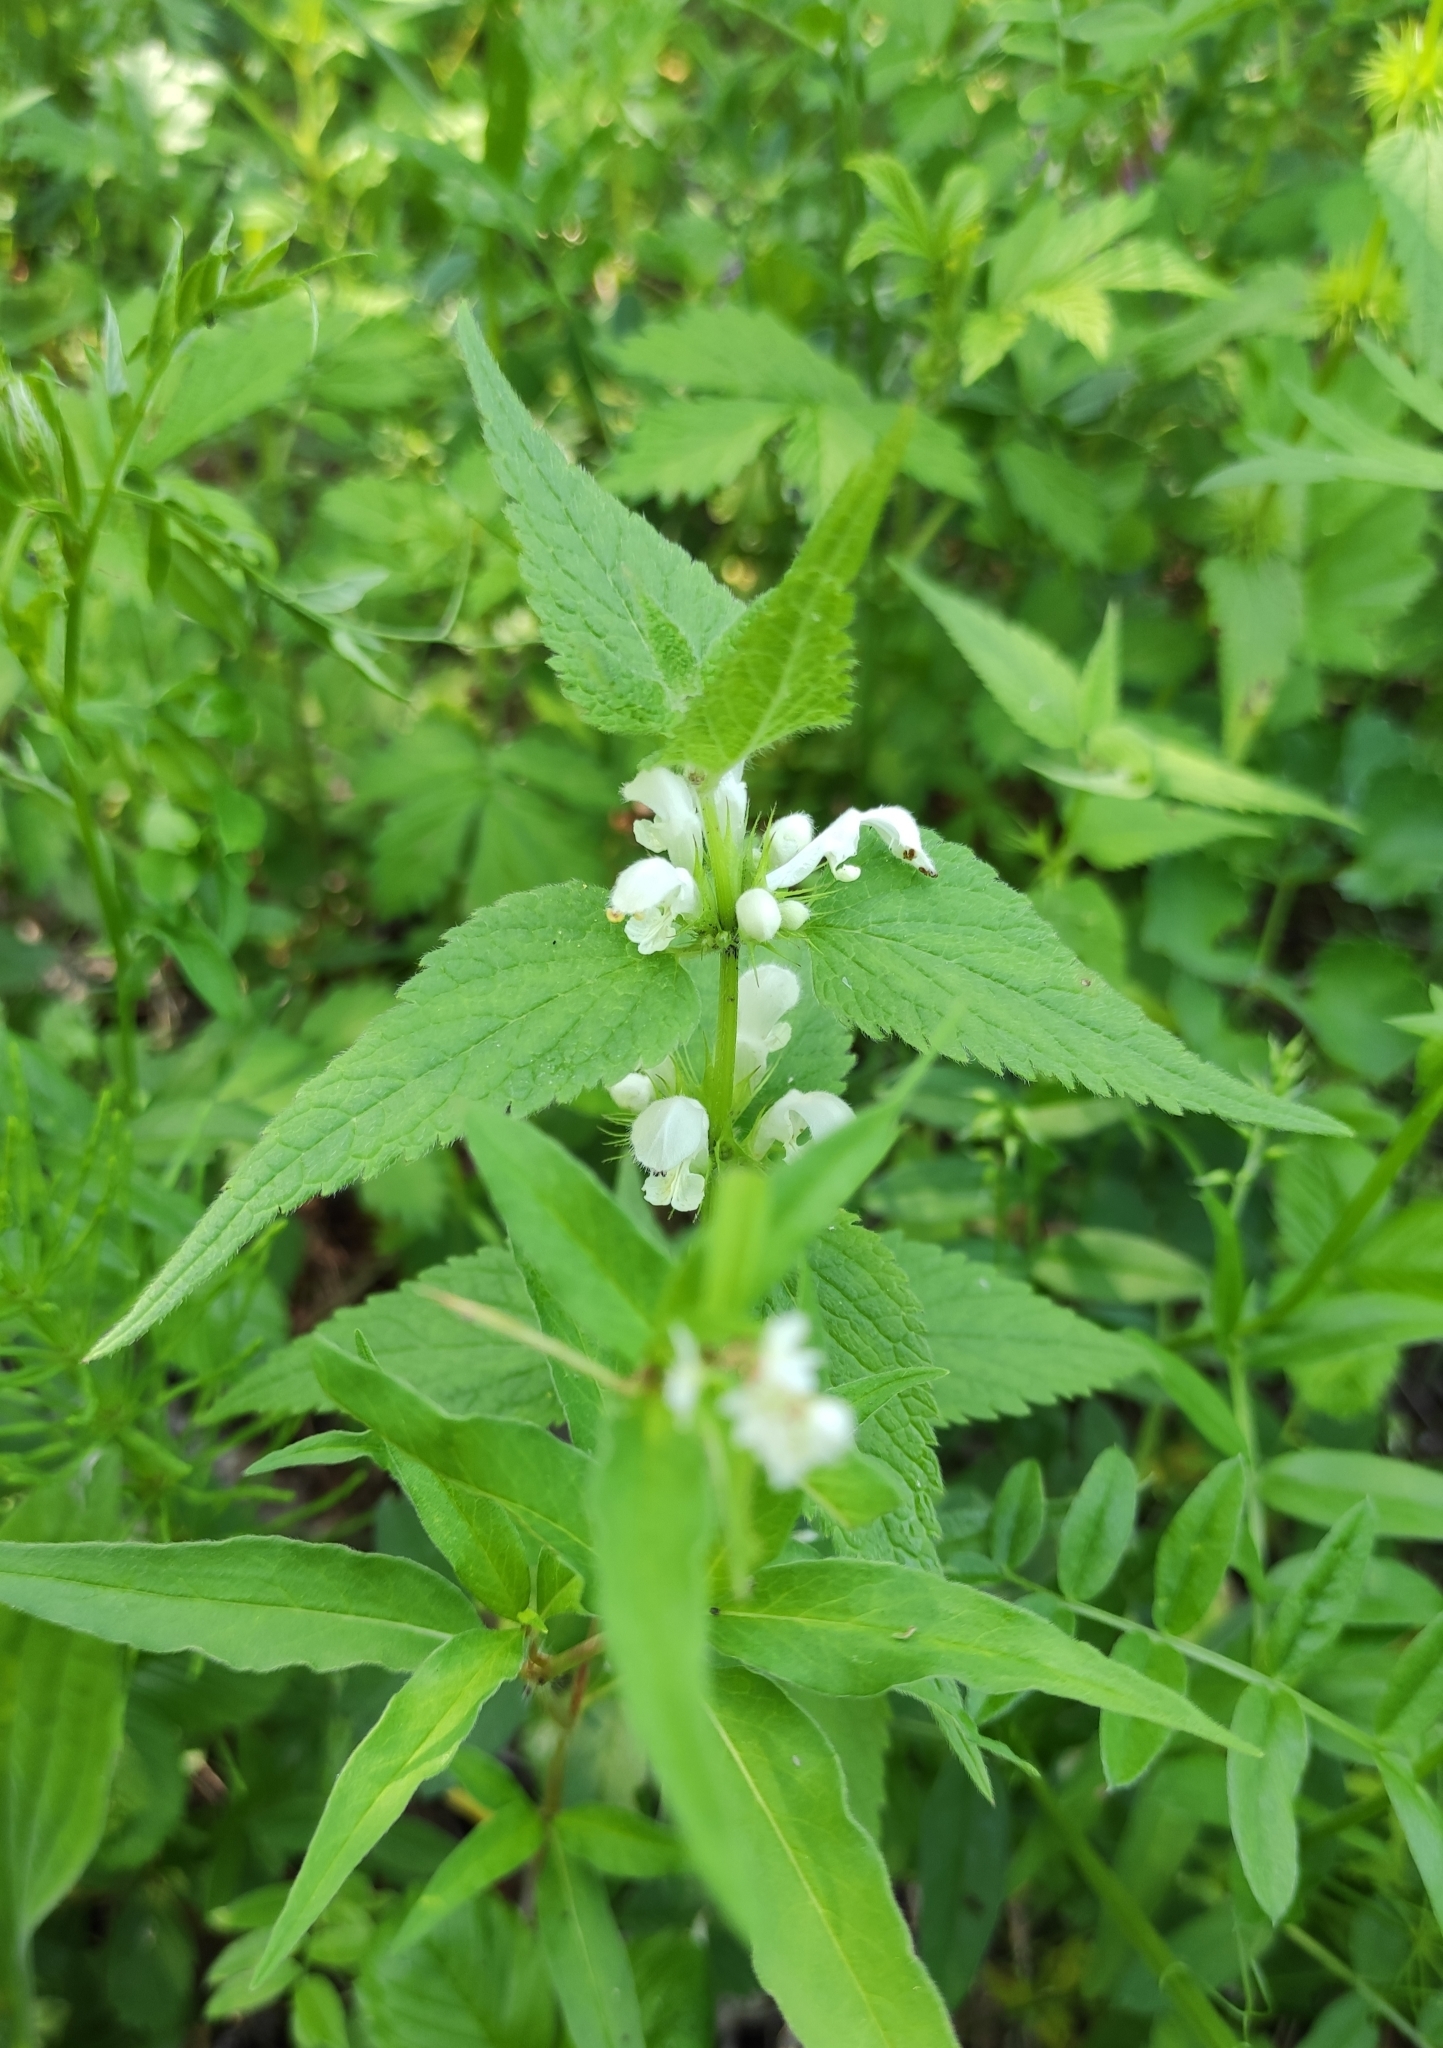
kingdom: Plantae
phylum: Tracheophyta
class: Magnoliopsida
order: Lamiales
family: Lamiaceae
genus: Lamium
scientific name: Lamium album
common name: White dead-nettle
